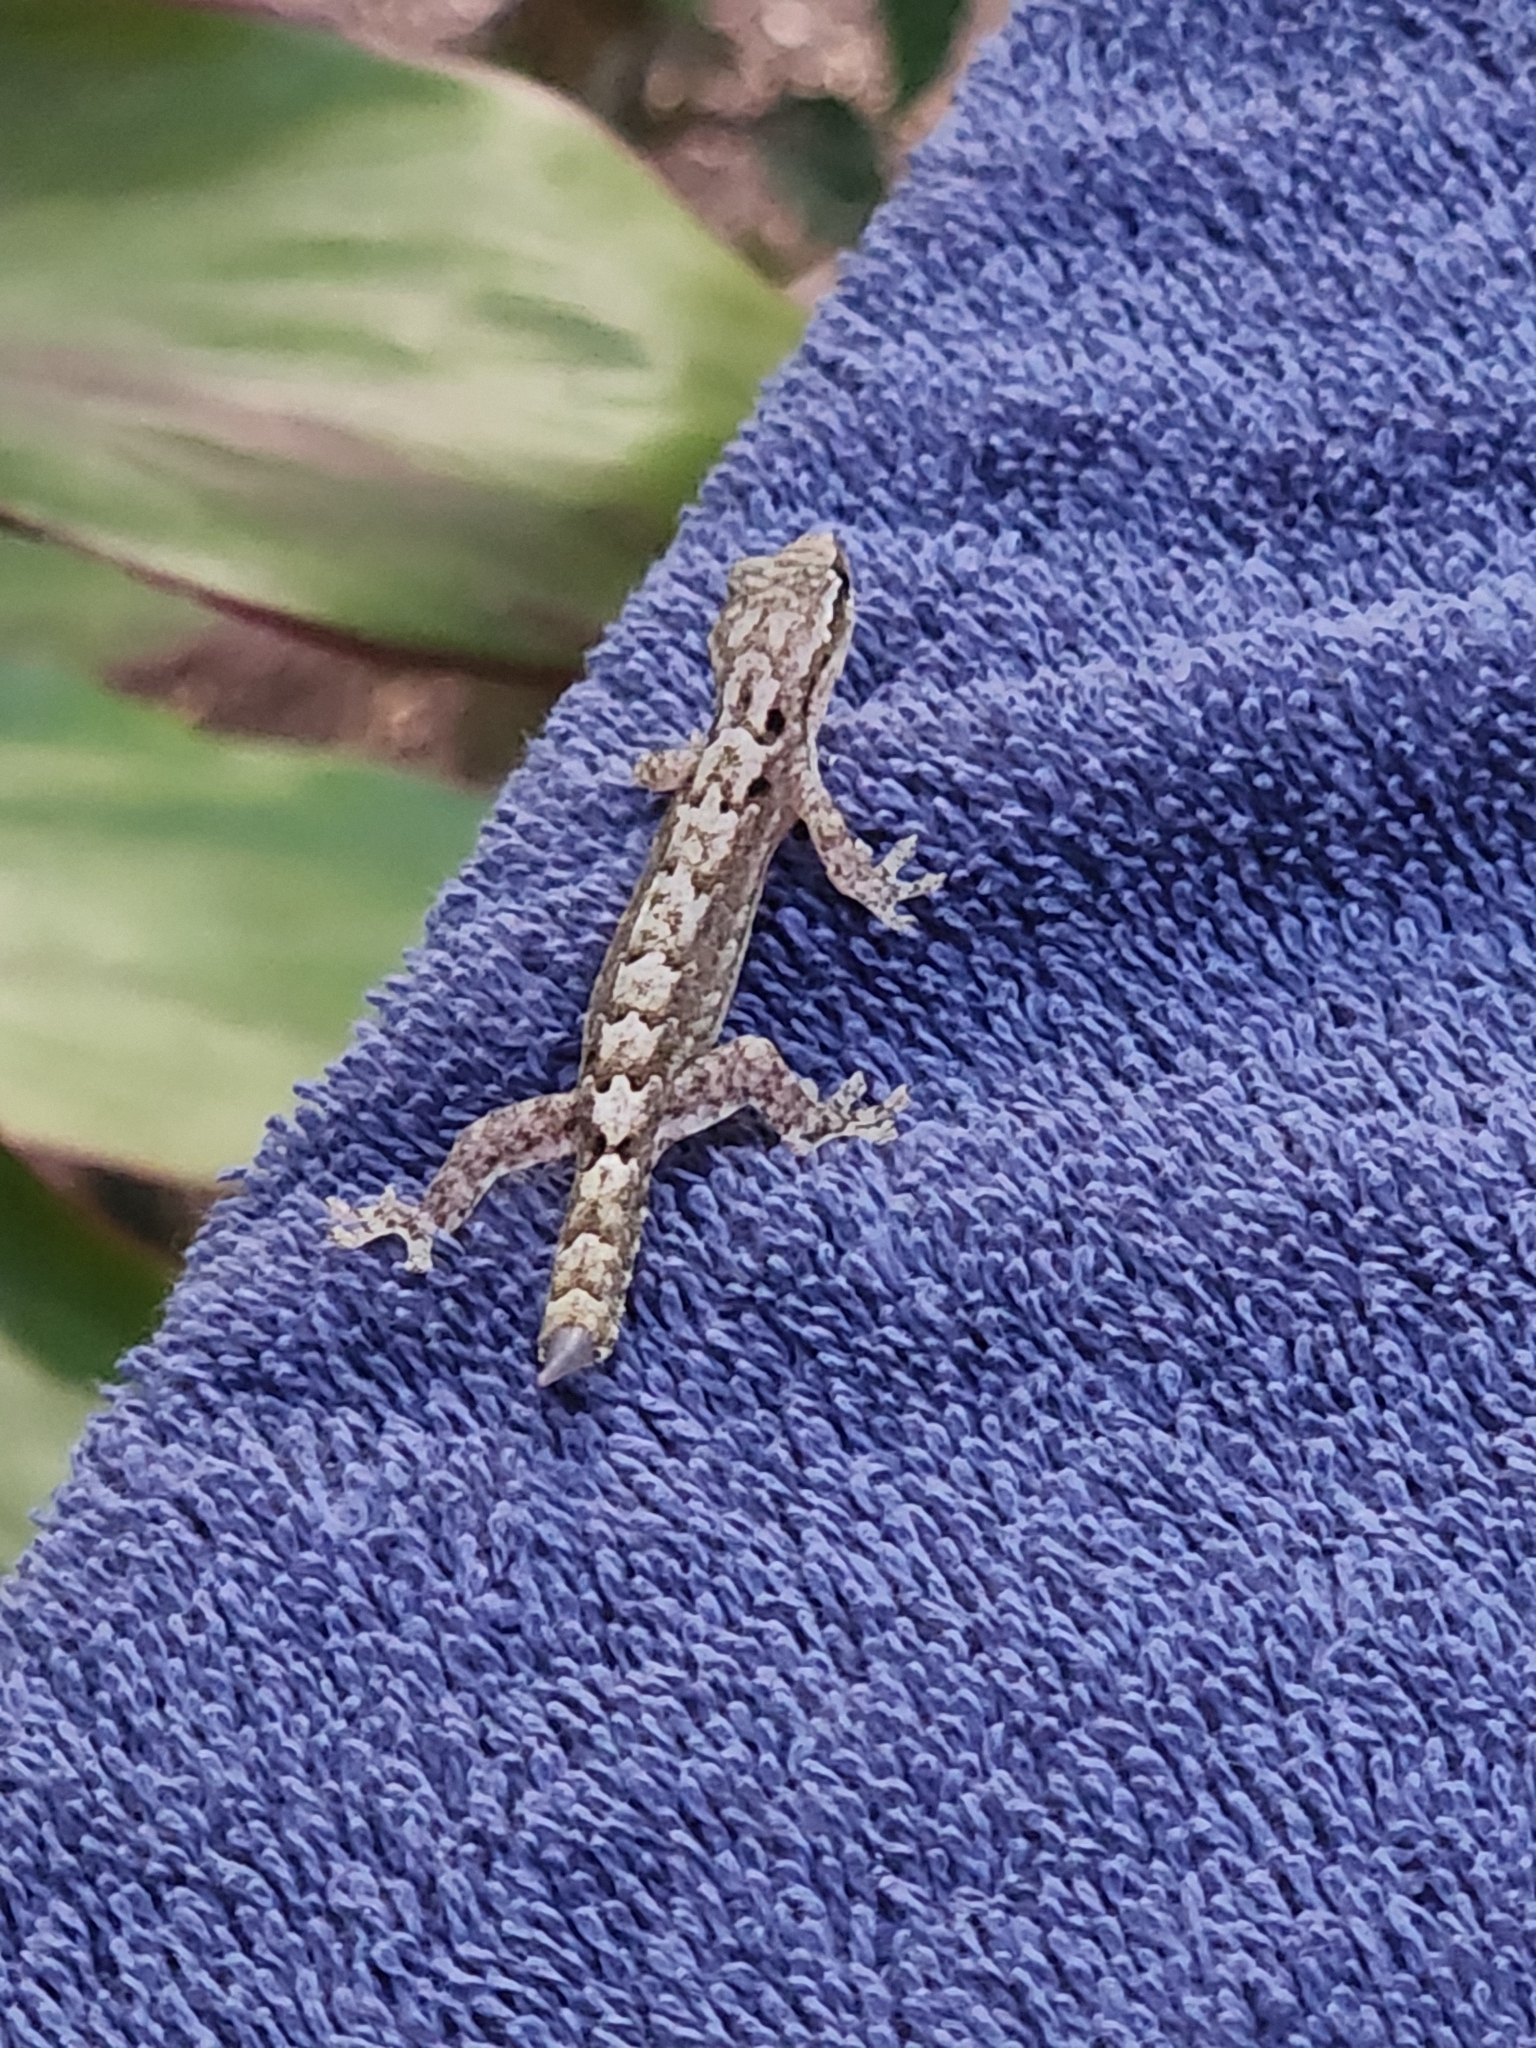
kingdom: Animalia
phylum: Chordata
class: Squamata
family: Gekkonidae
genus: Lepidodactylus
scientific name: Lepidodactylus lugubris
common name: Mourning gecko
